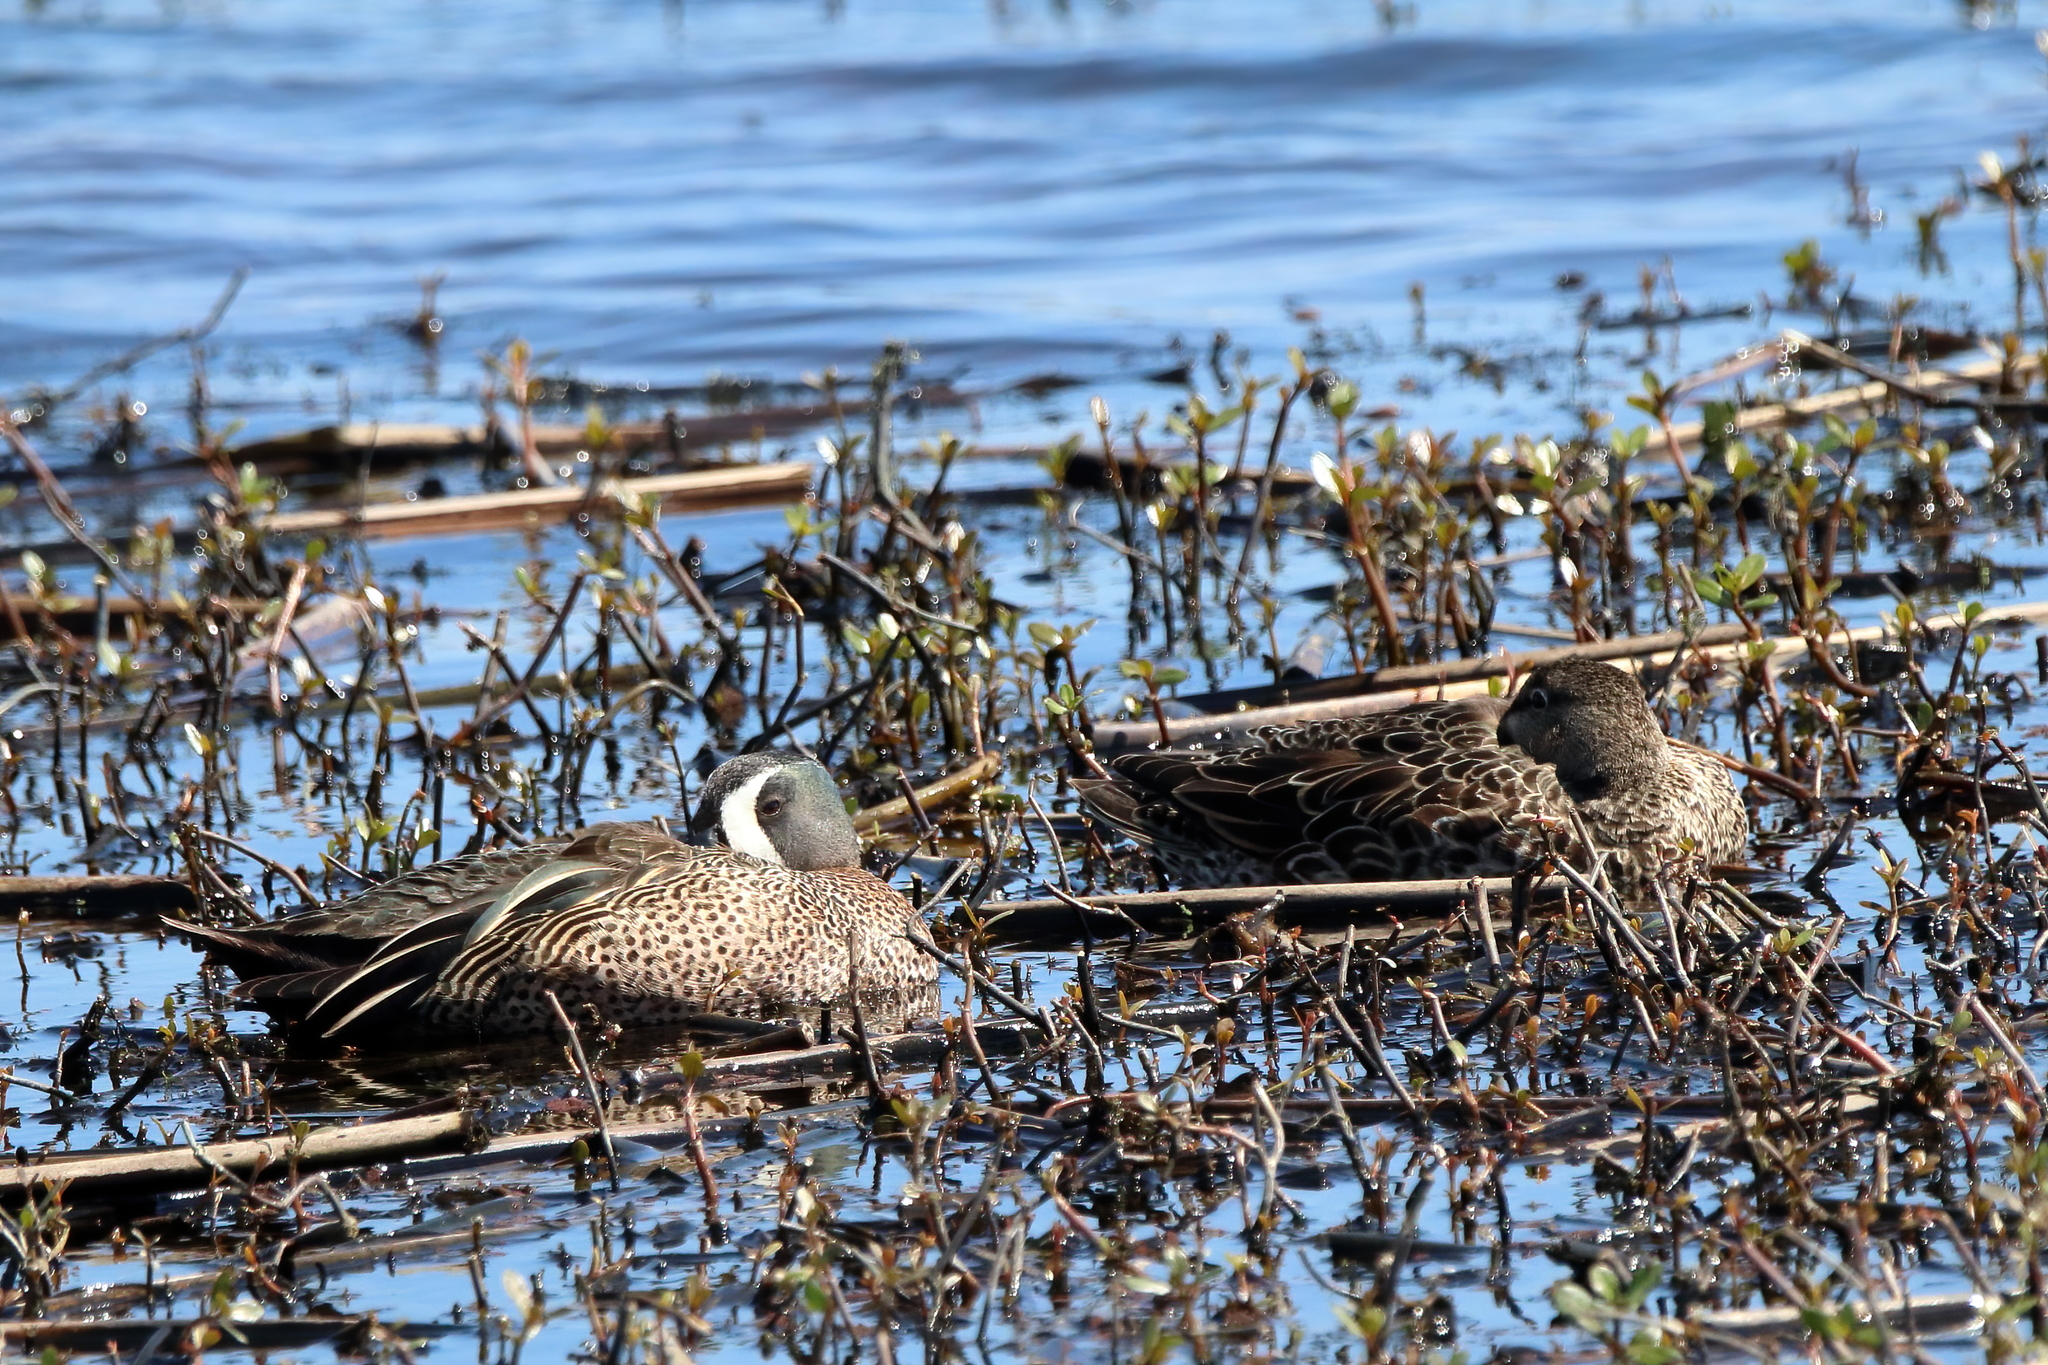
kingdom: Animalia
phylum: Chordata
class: Aves
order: Anseriformes
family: Anatidae
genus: Spatula
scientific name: Spatula discors
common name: Blue-winged teal
